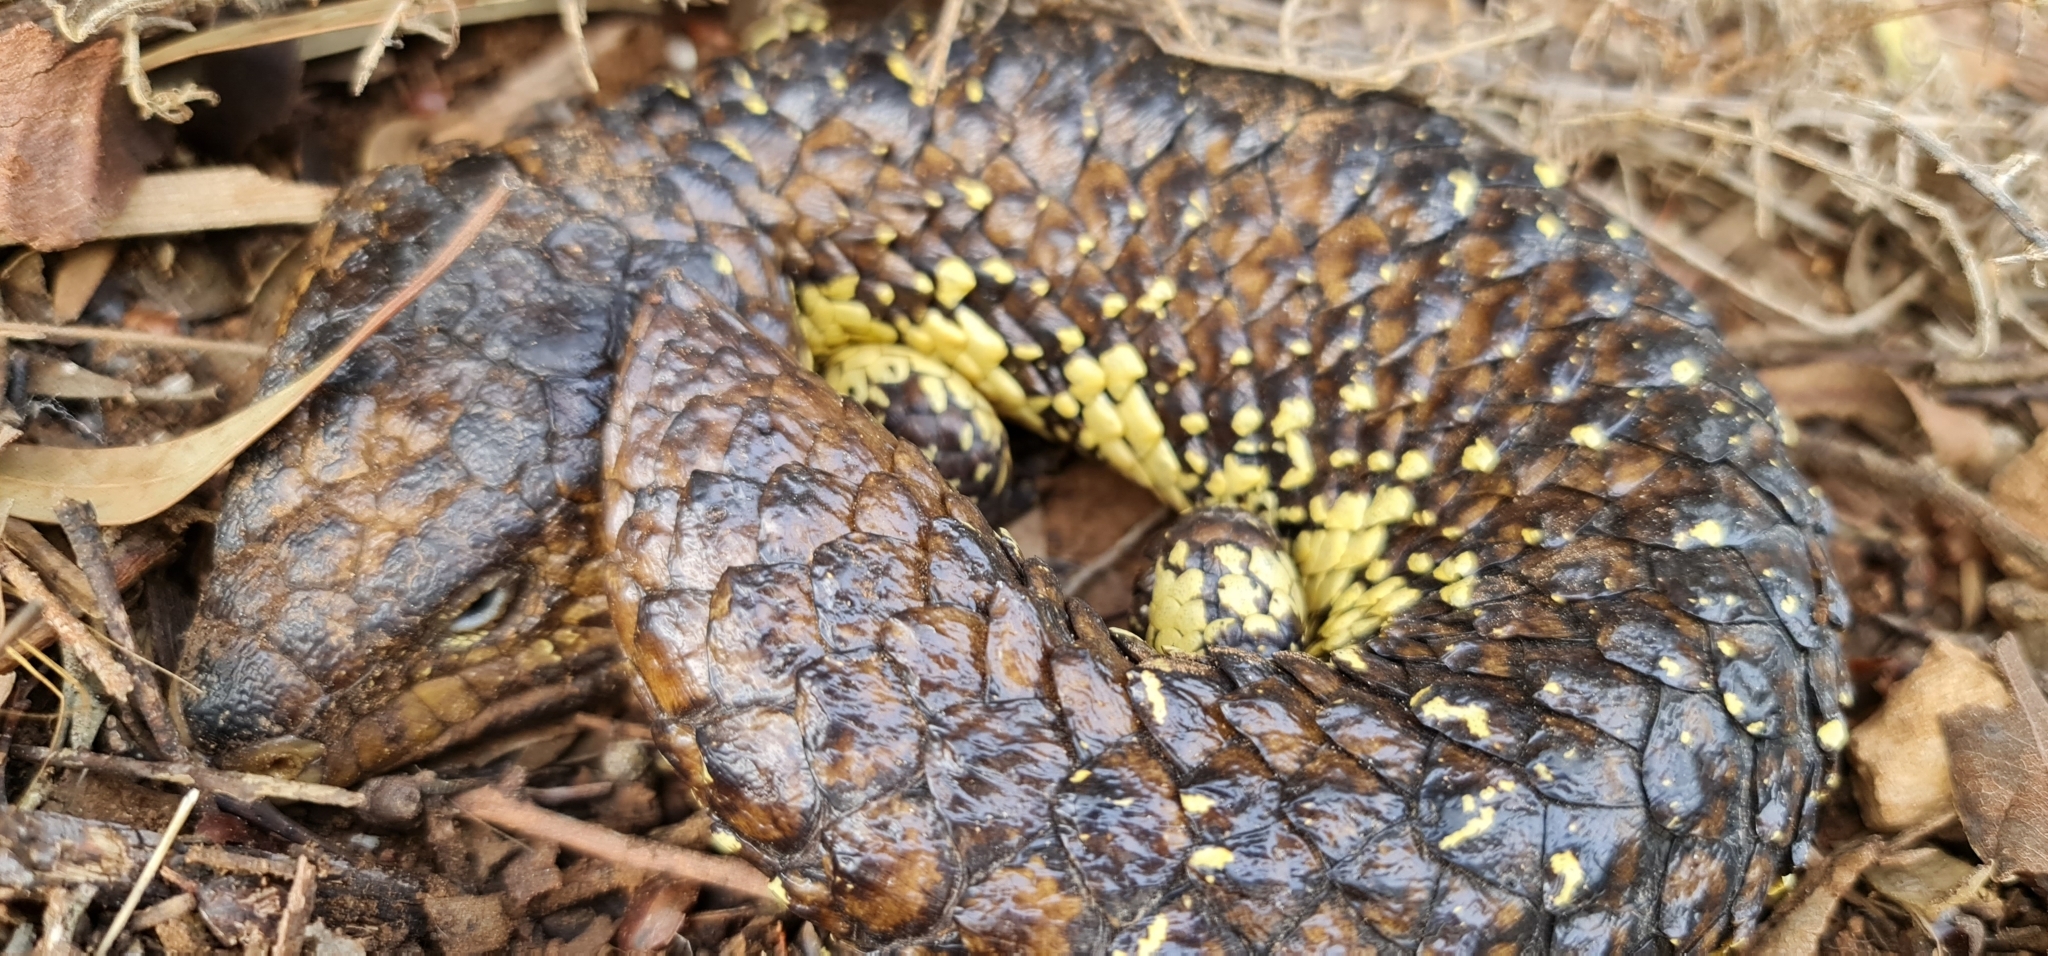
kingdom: Animalia
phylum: Chordata
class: Squamata
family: Scincidae
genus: Tiliqua
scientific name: Tiliqua rugosa
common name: Pinecone lizard
